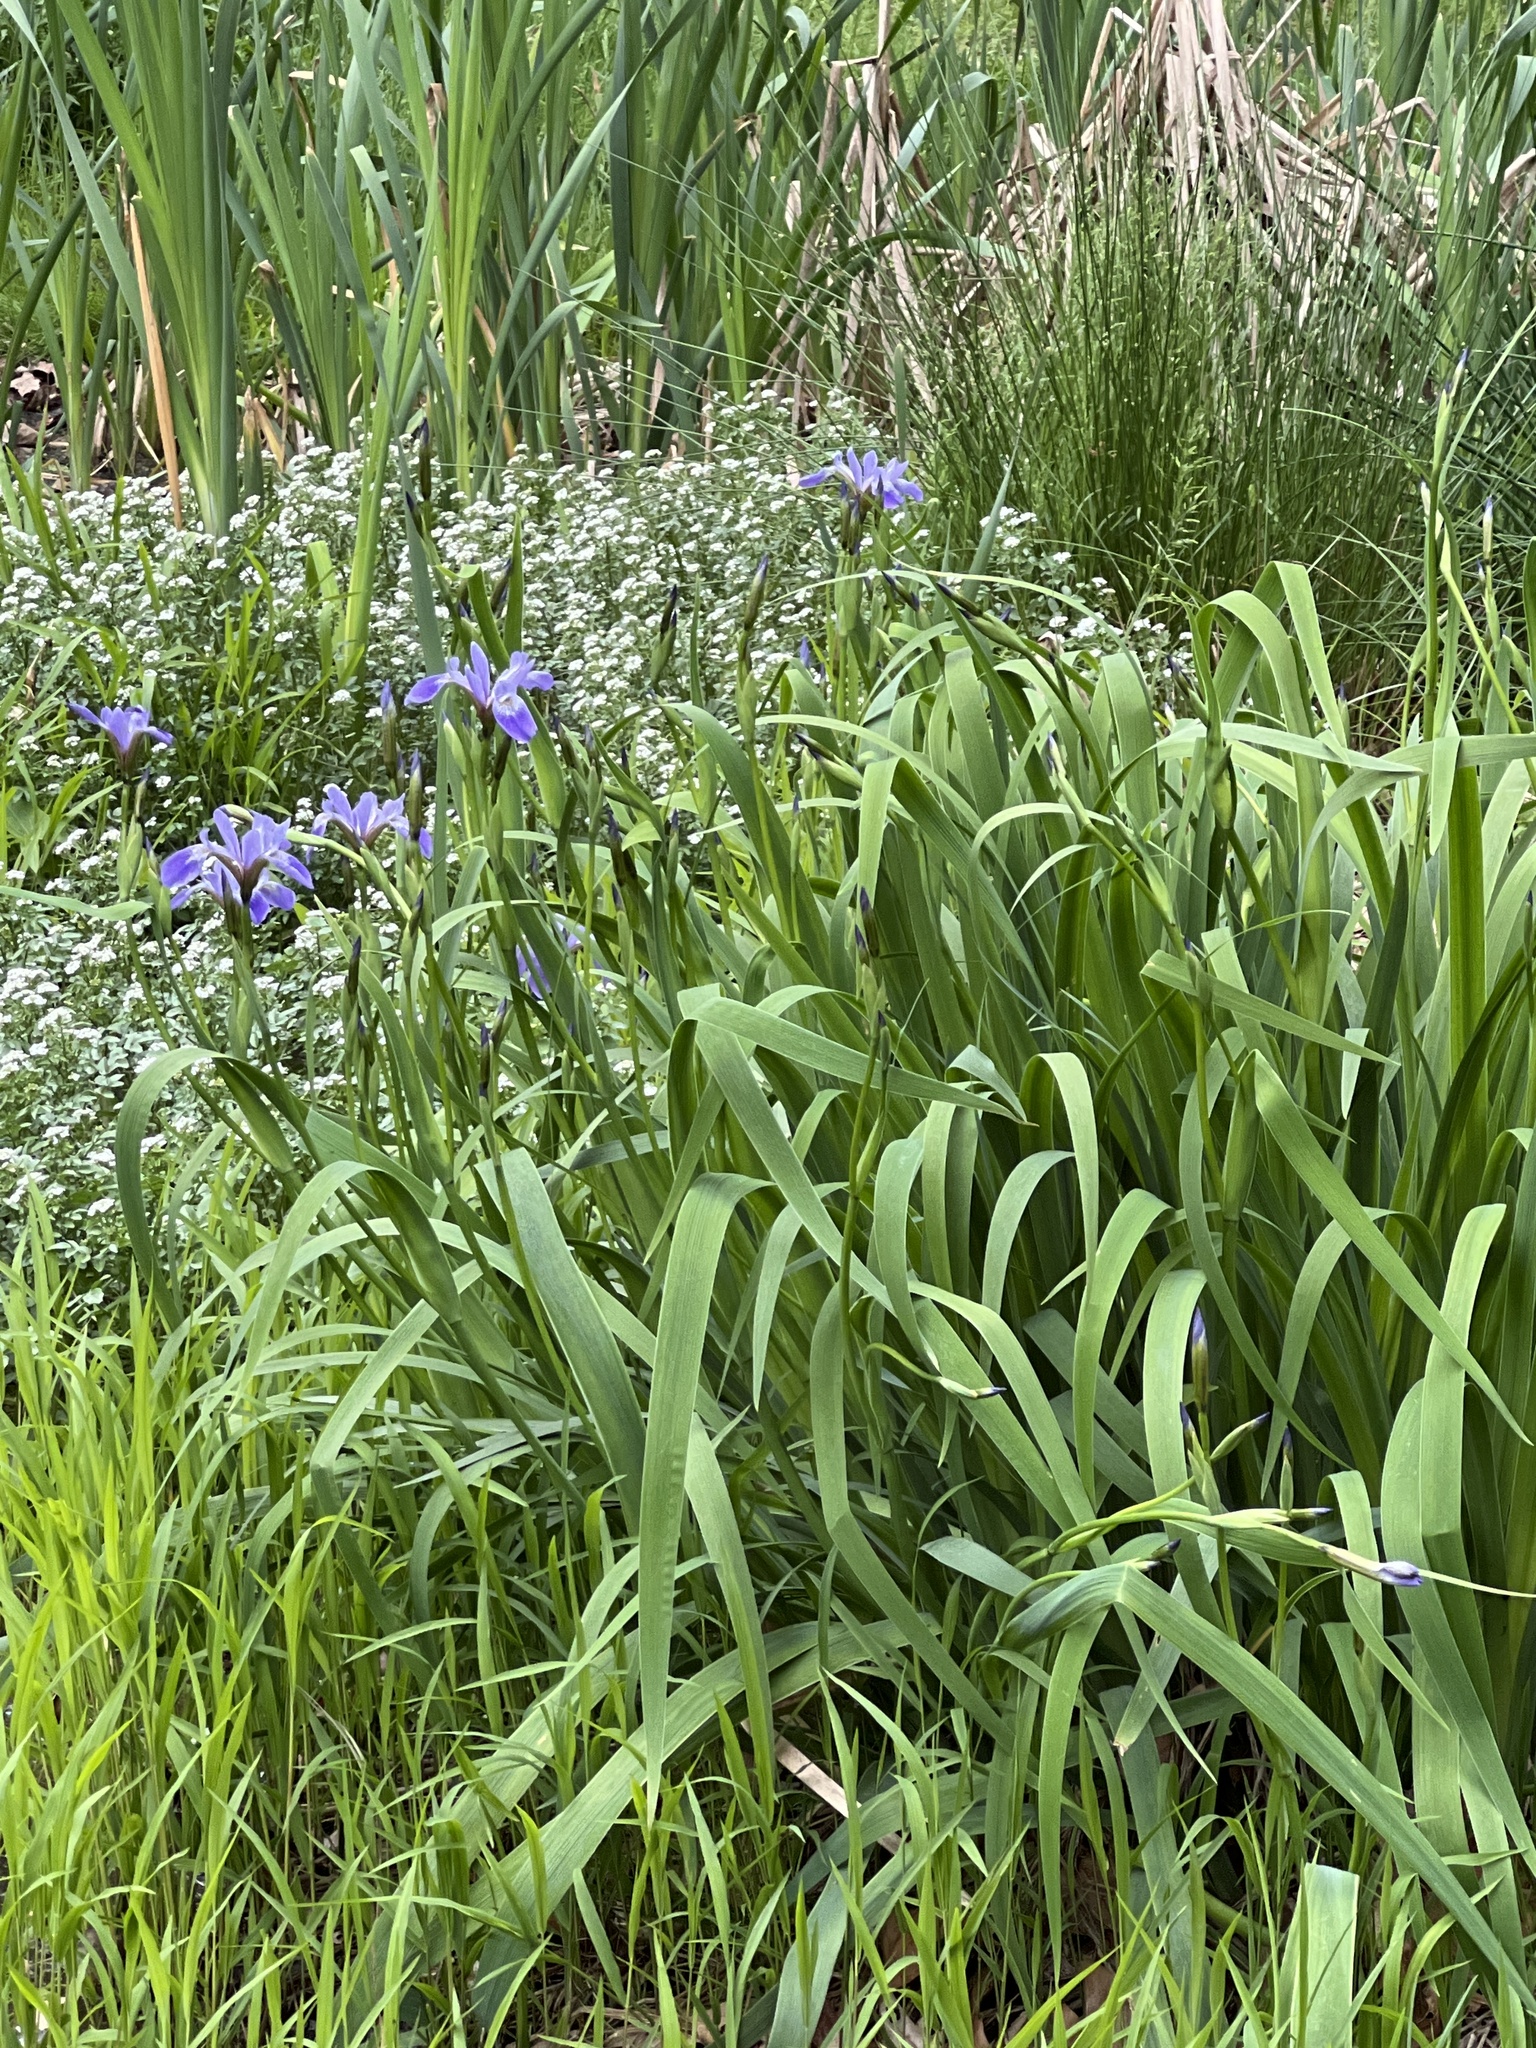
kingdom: Plantae
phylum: Tracheophyta
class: Liliopsida
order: Asparagales
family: Iridaceae
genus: Iris
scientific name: Iris versicolor
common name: Purple iris
